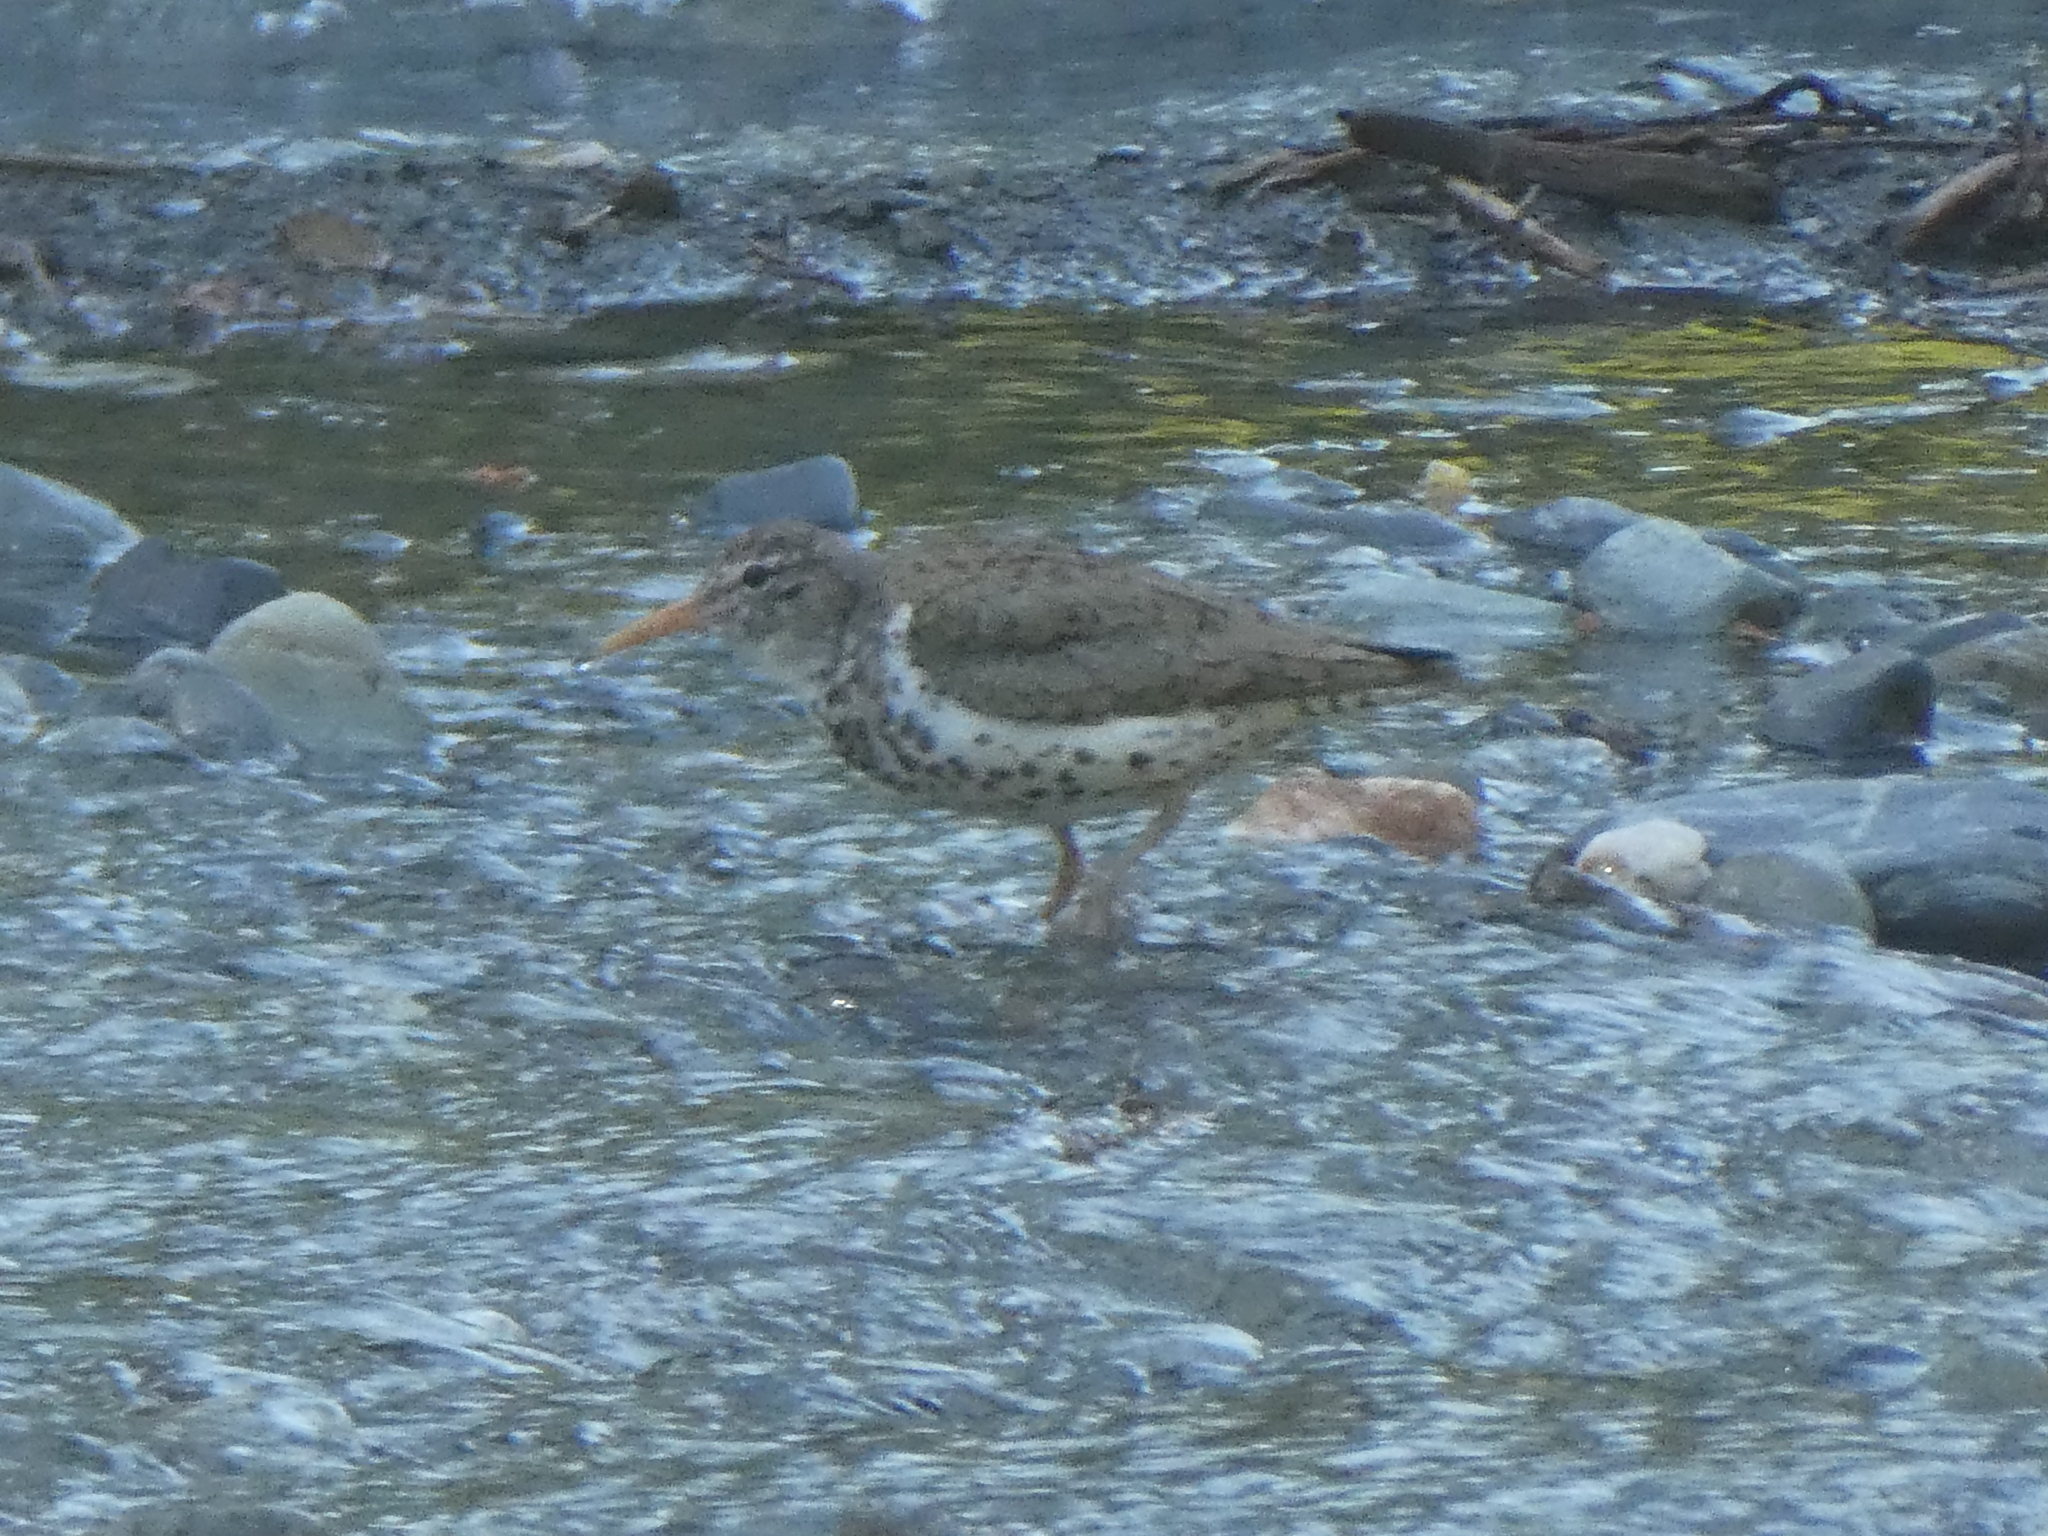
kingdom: Animalia
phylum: Chordata
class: Aves
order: Charadriiformes
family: Scolopacidae
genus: Actitis
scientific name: Actitis macularius
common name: Spotted sandpiper
